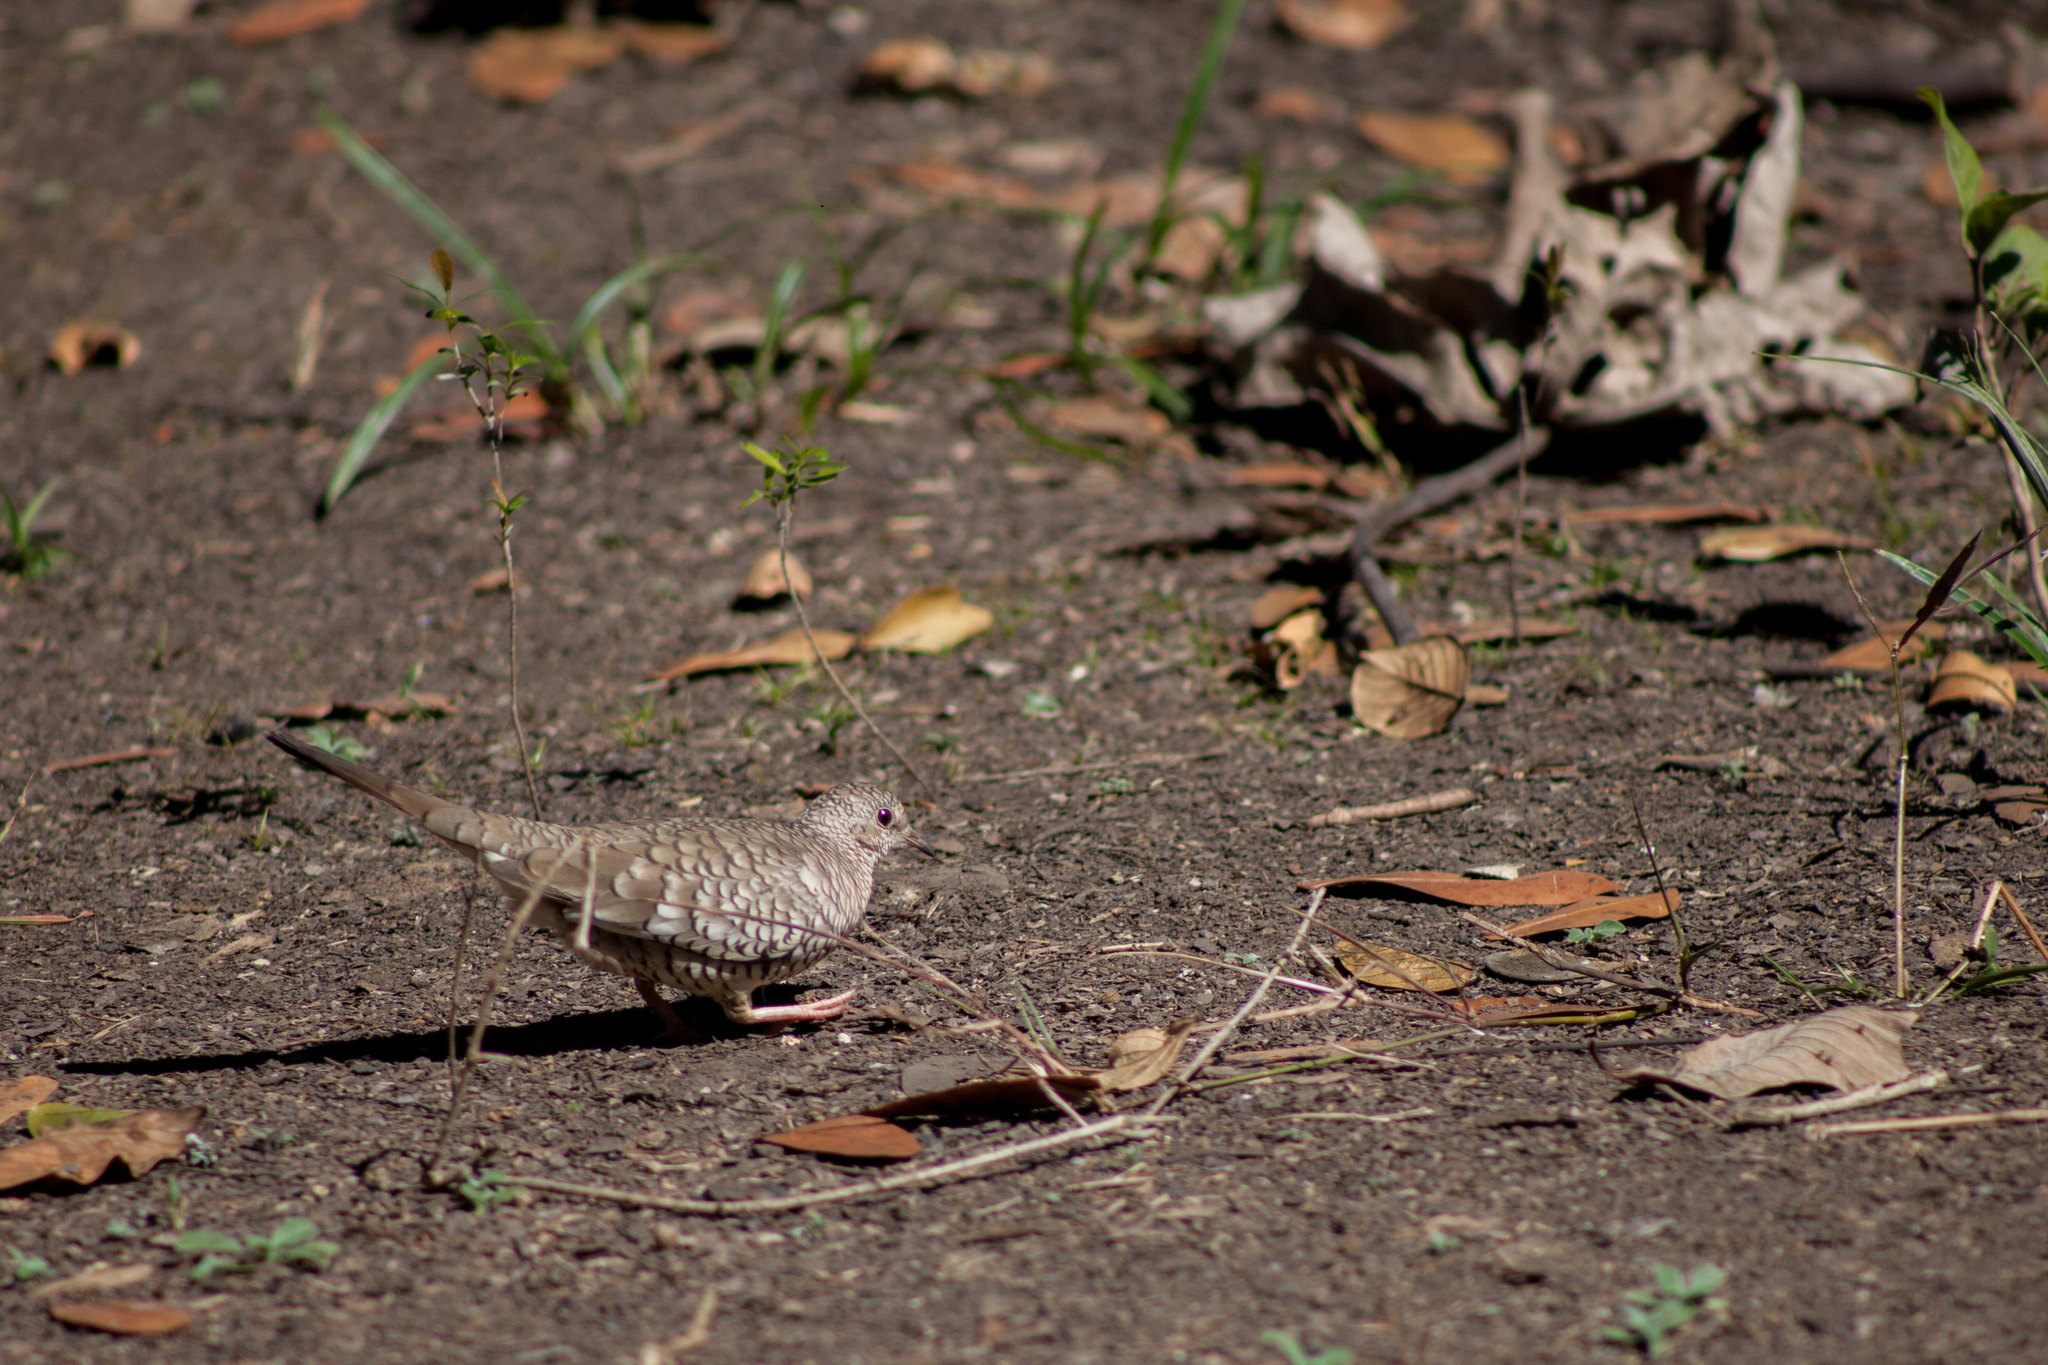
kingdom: Animalia
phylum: Chordata
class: Aves
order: Columbiformes
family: Columbidae
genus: Columbina
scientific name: Columbina squammata
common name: Scaled dove
